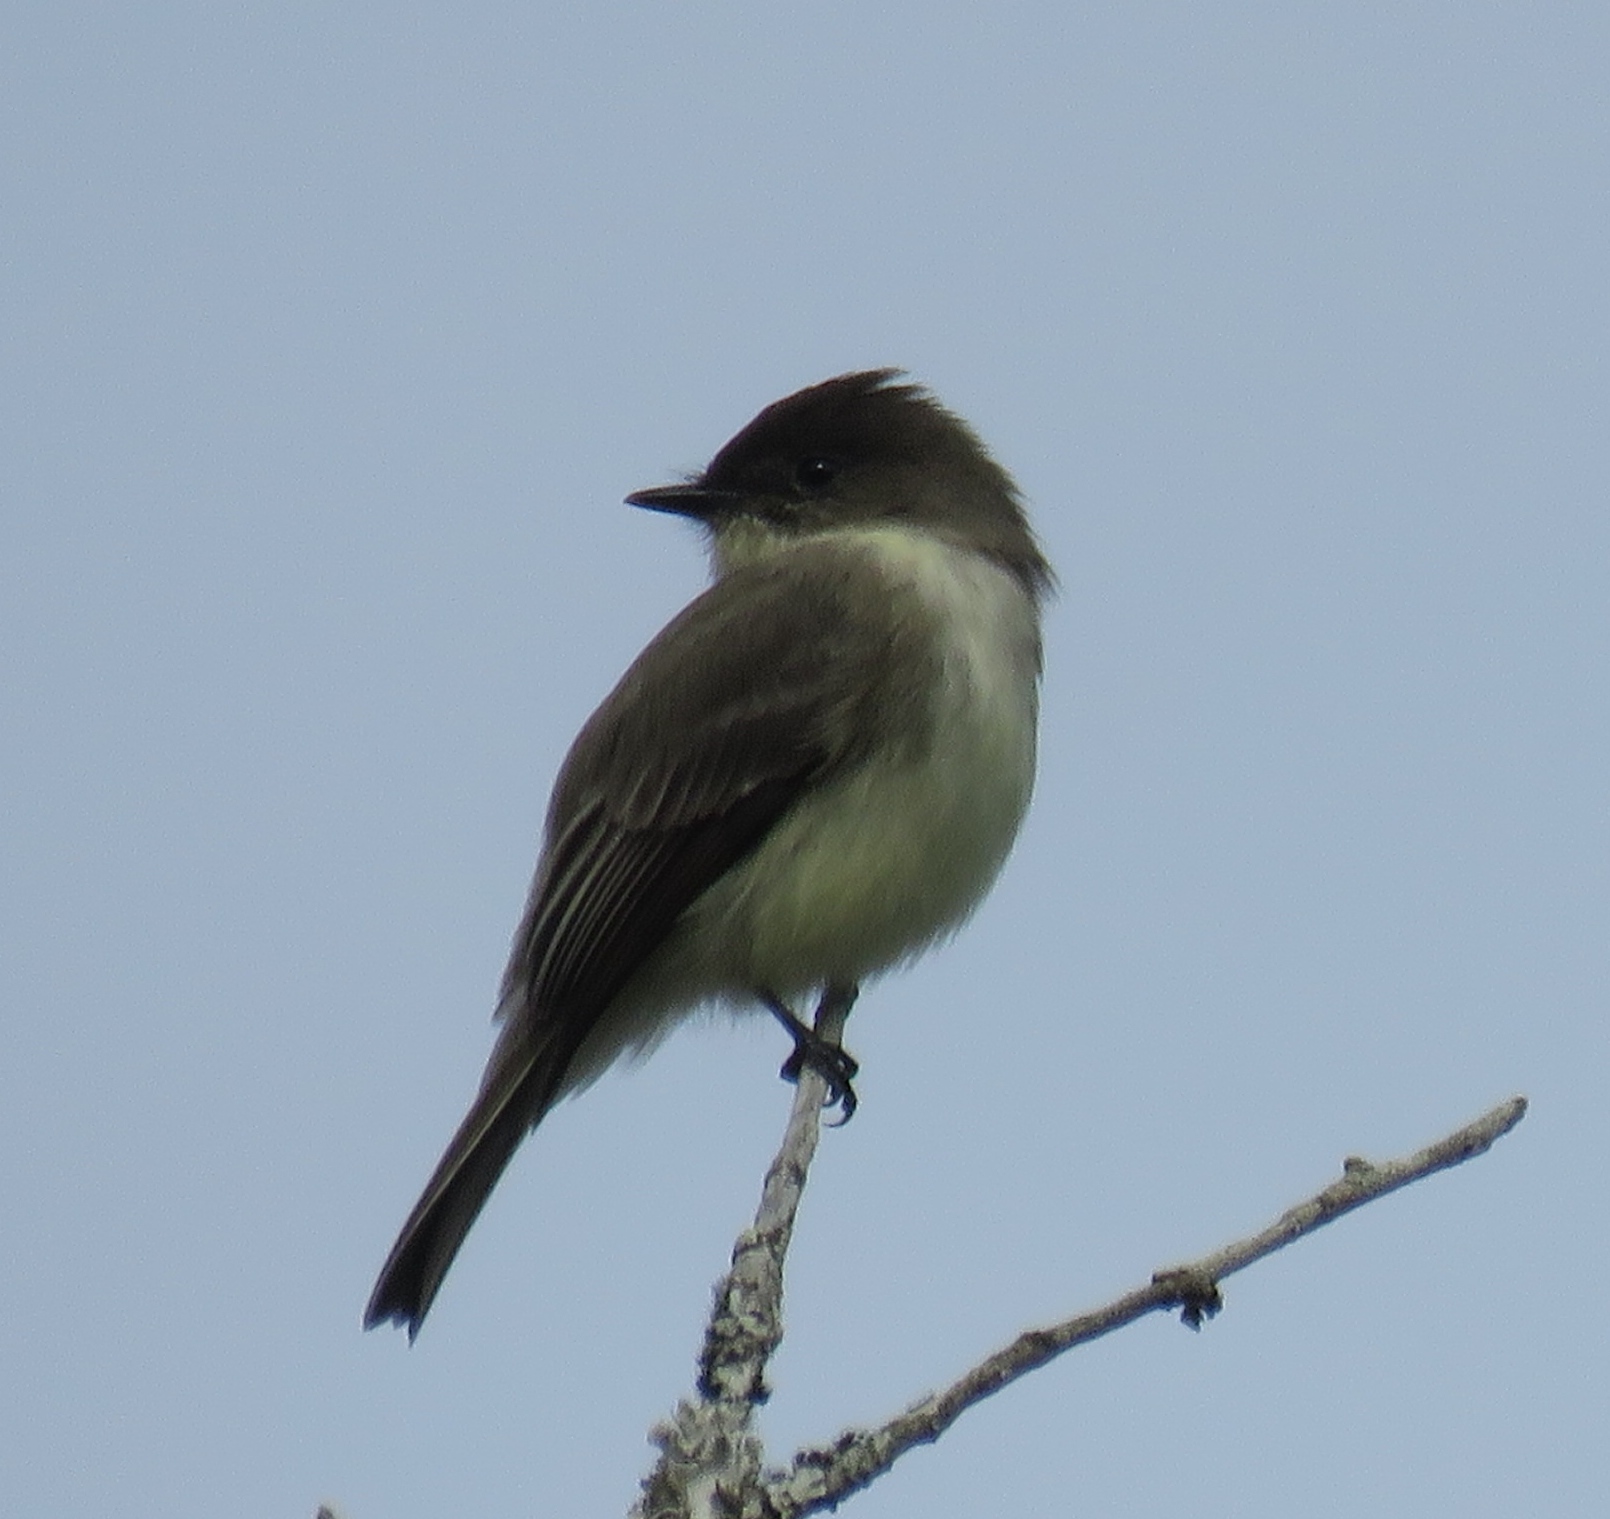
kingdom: Animalia
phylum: Chordata
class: Aves
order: Passeriformes
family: Tyrannidae
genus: Sayornis
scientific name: Sayornis phoebe
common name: Eastern phoebe
